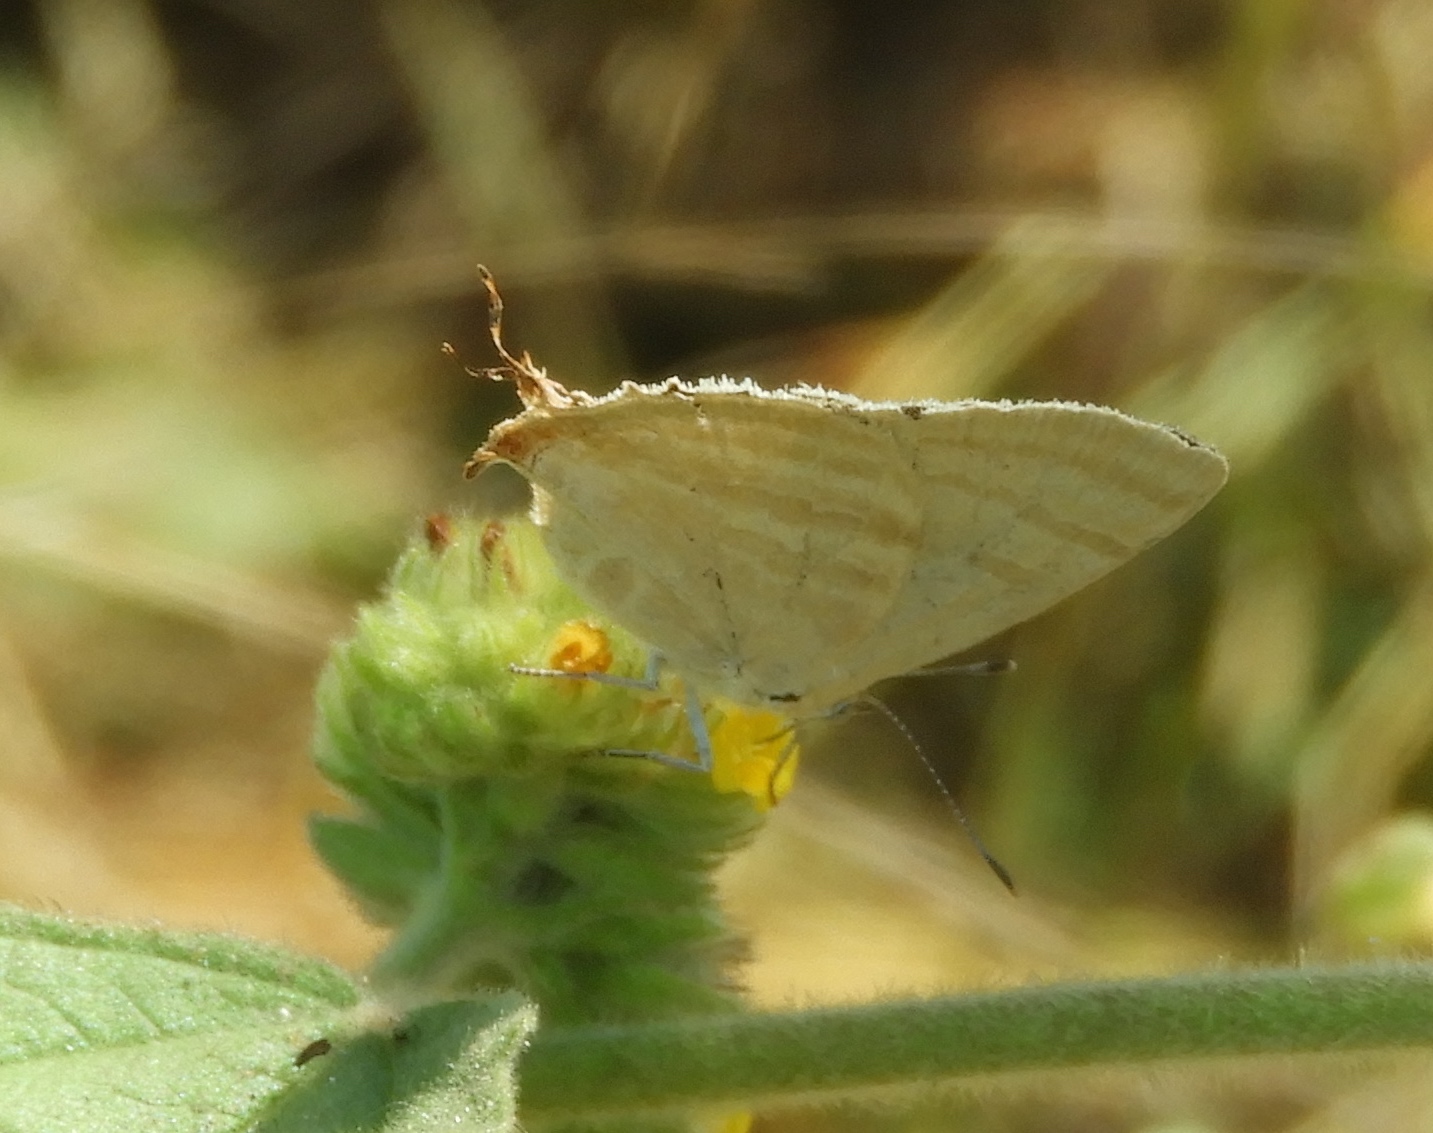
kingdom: Animalia
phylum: Arthropoda
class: Insecta
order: Lepidoptera
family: Lycaenidae
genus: Dolymorpha
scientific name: Dolymorpha jada
